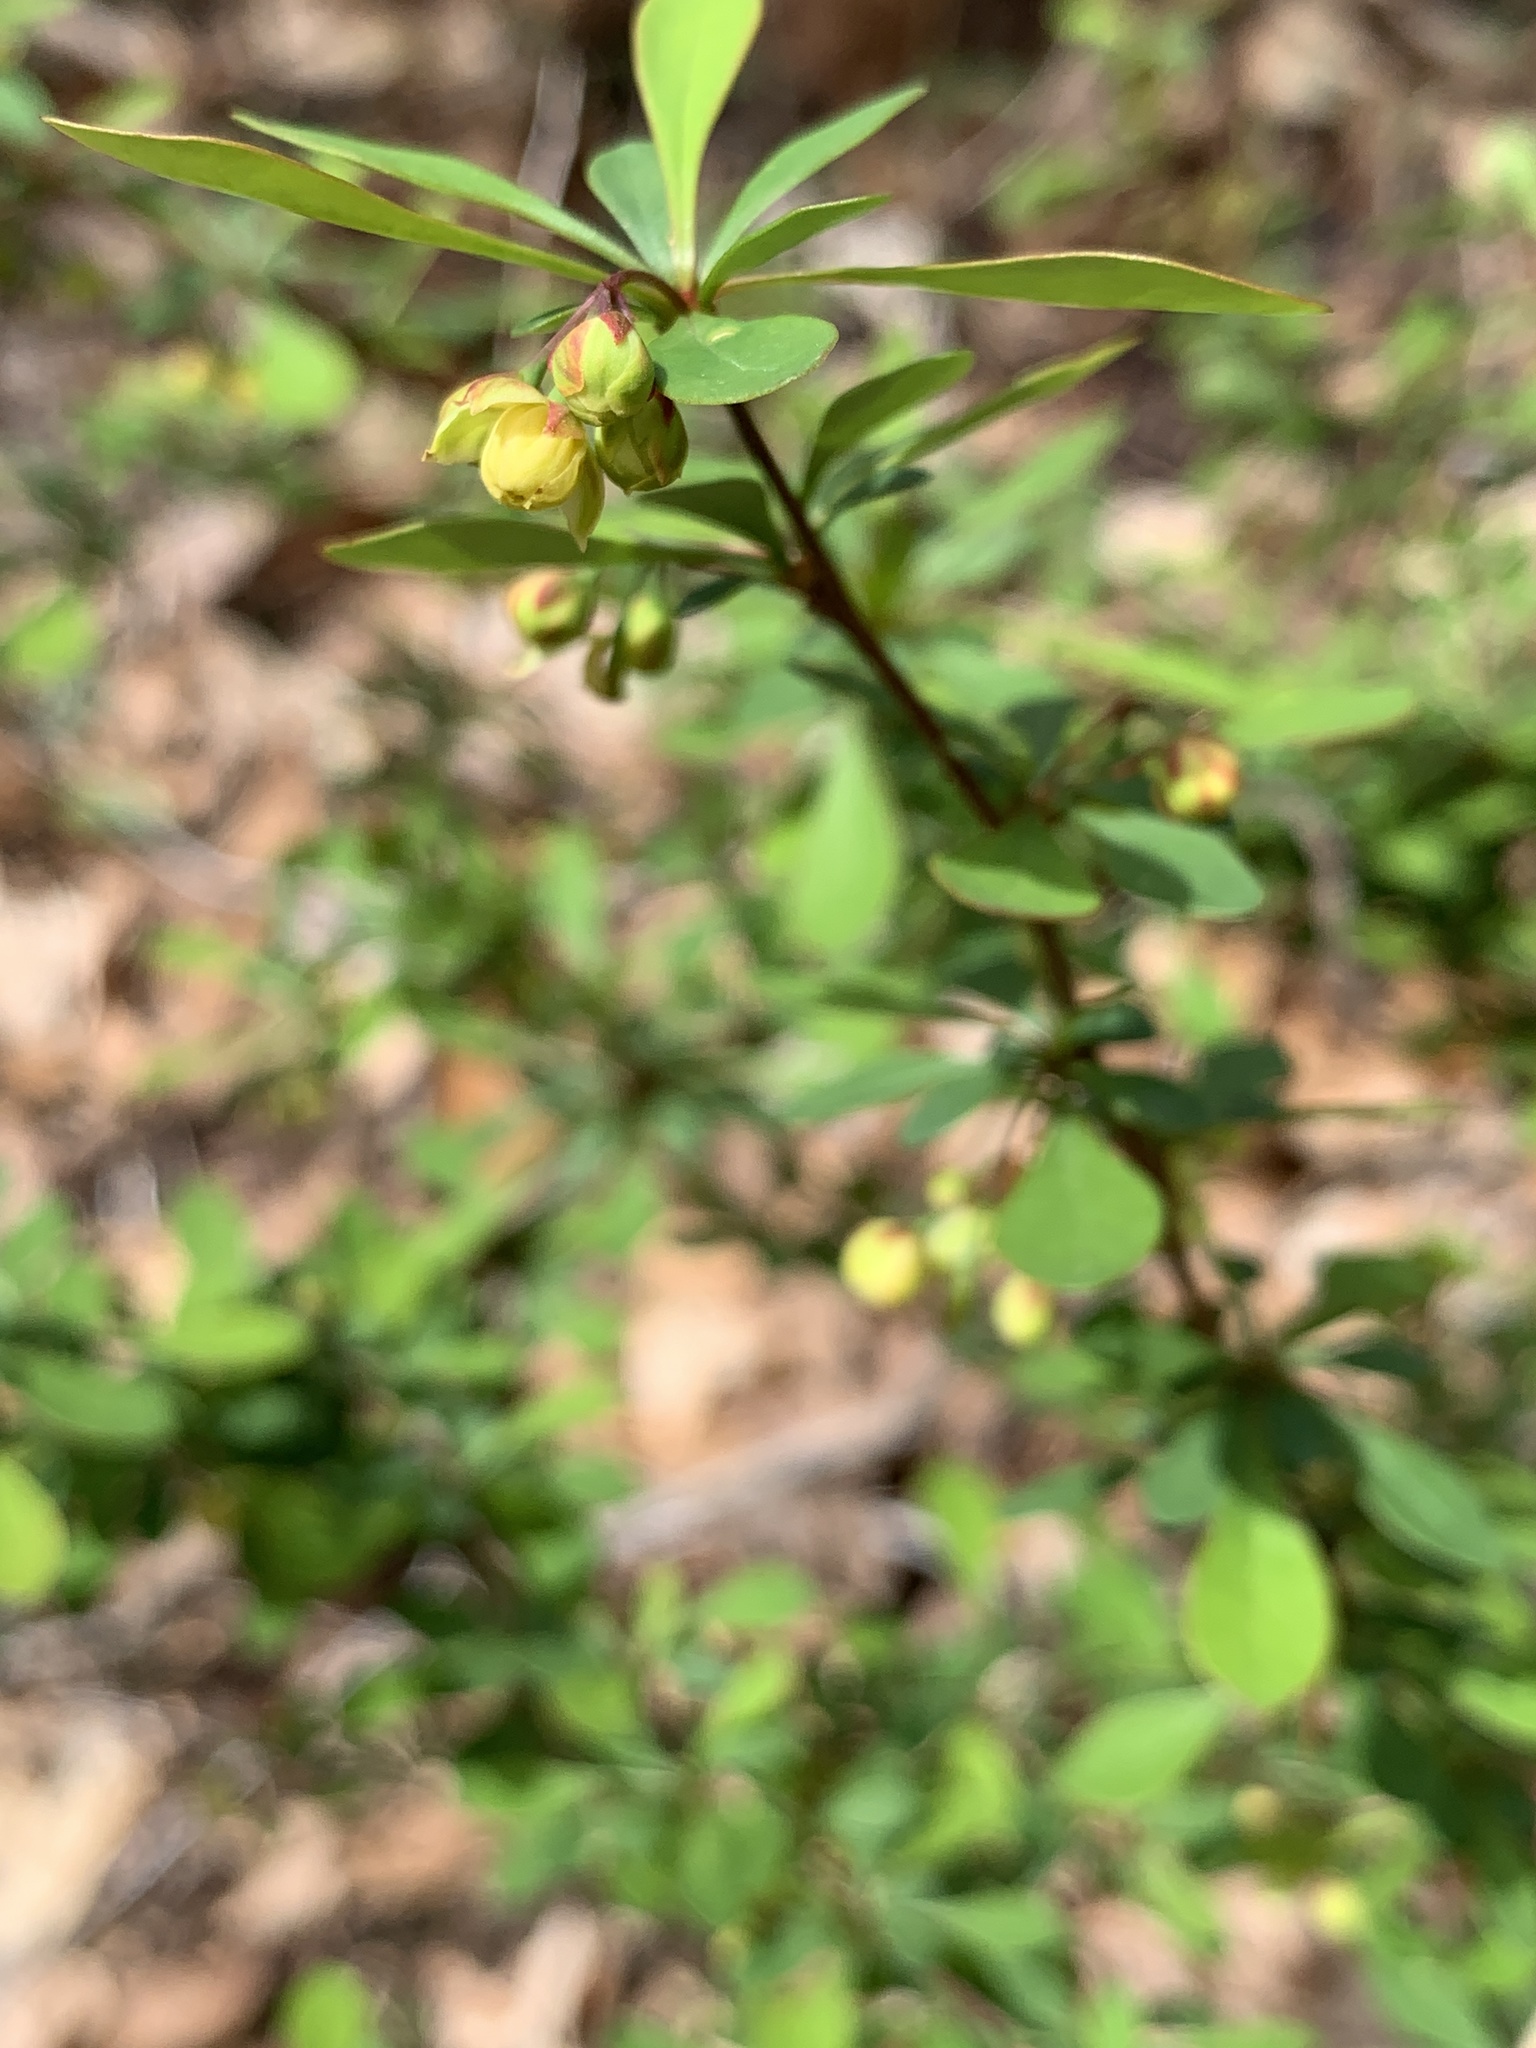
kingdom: Plantae
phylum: Tracheophyta
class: Magnoliopsida
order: Ranunculales
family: Berberidaceae
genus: Berberis
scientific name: Berberis thunbergii
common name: Japanese barberry
